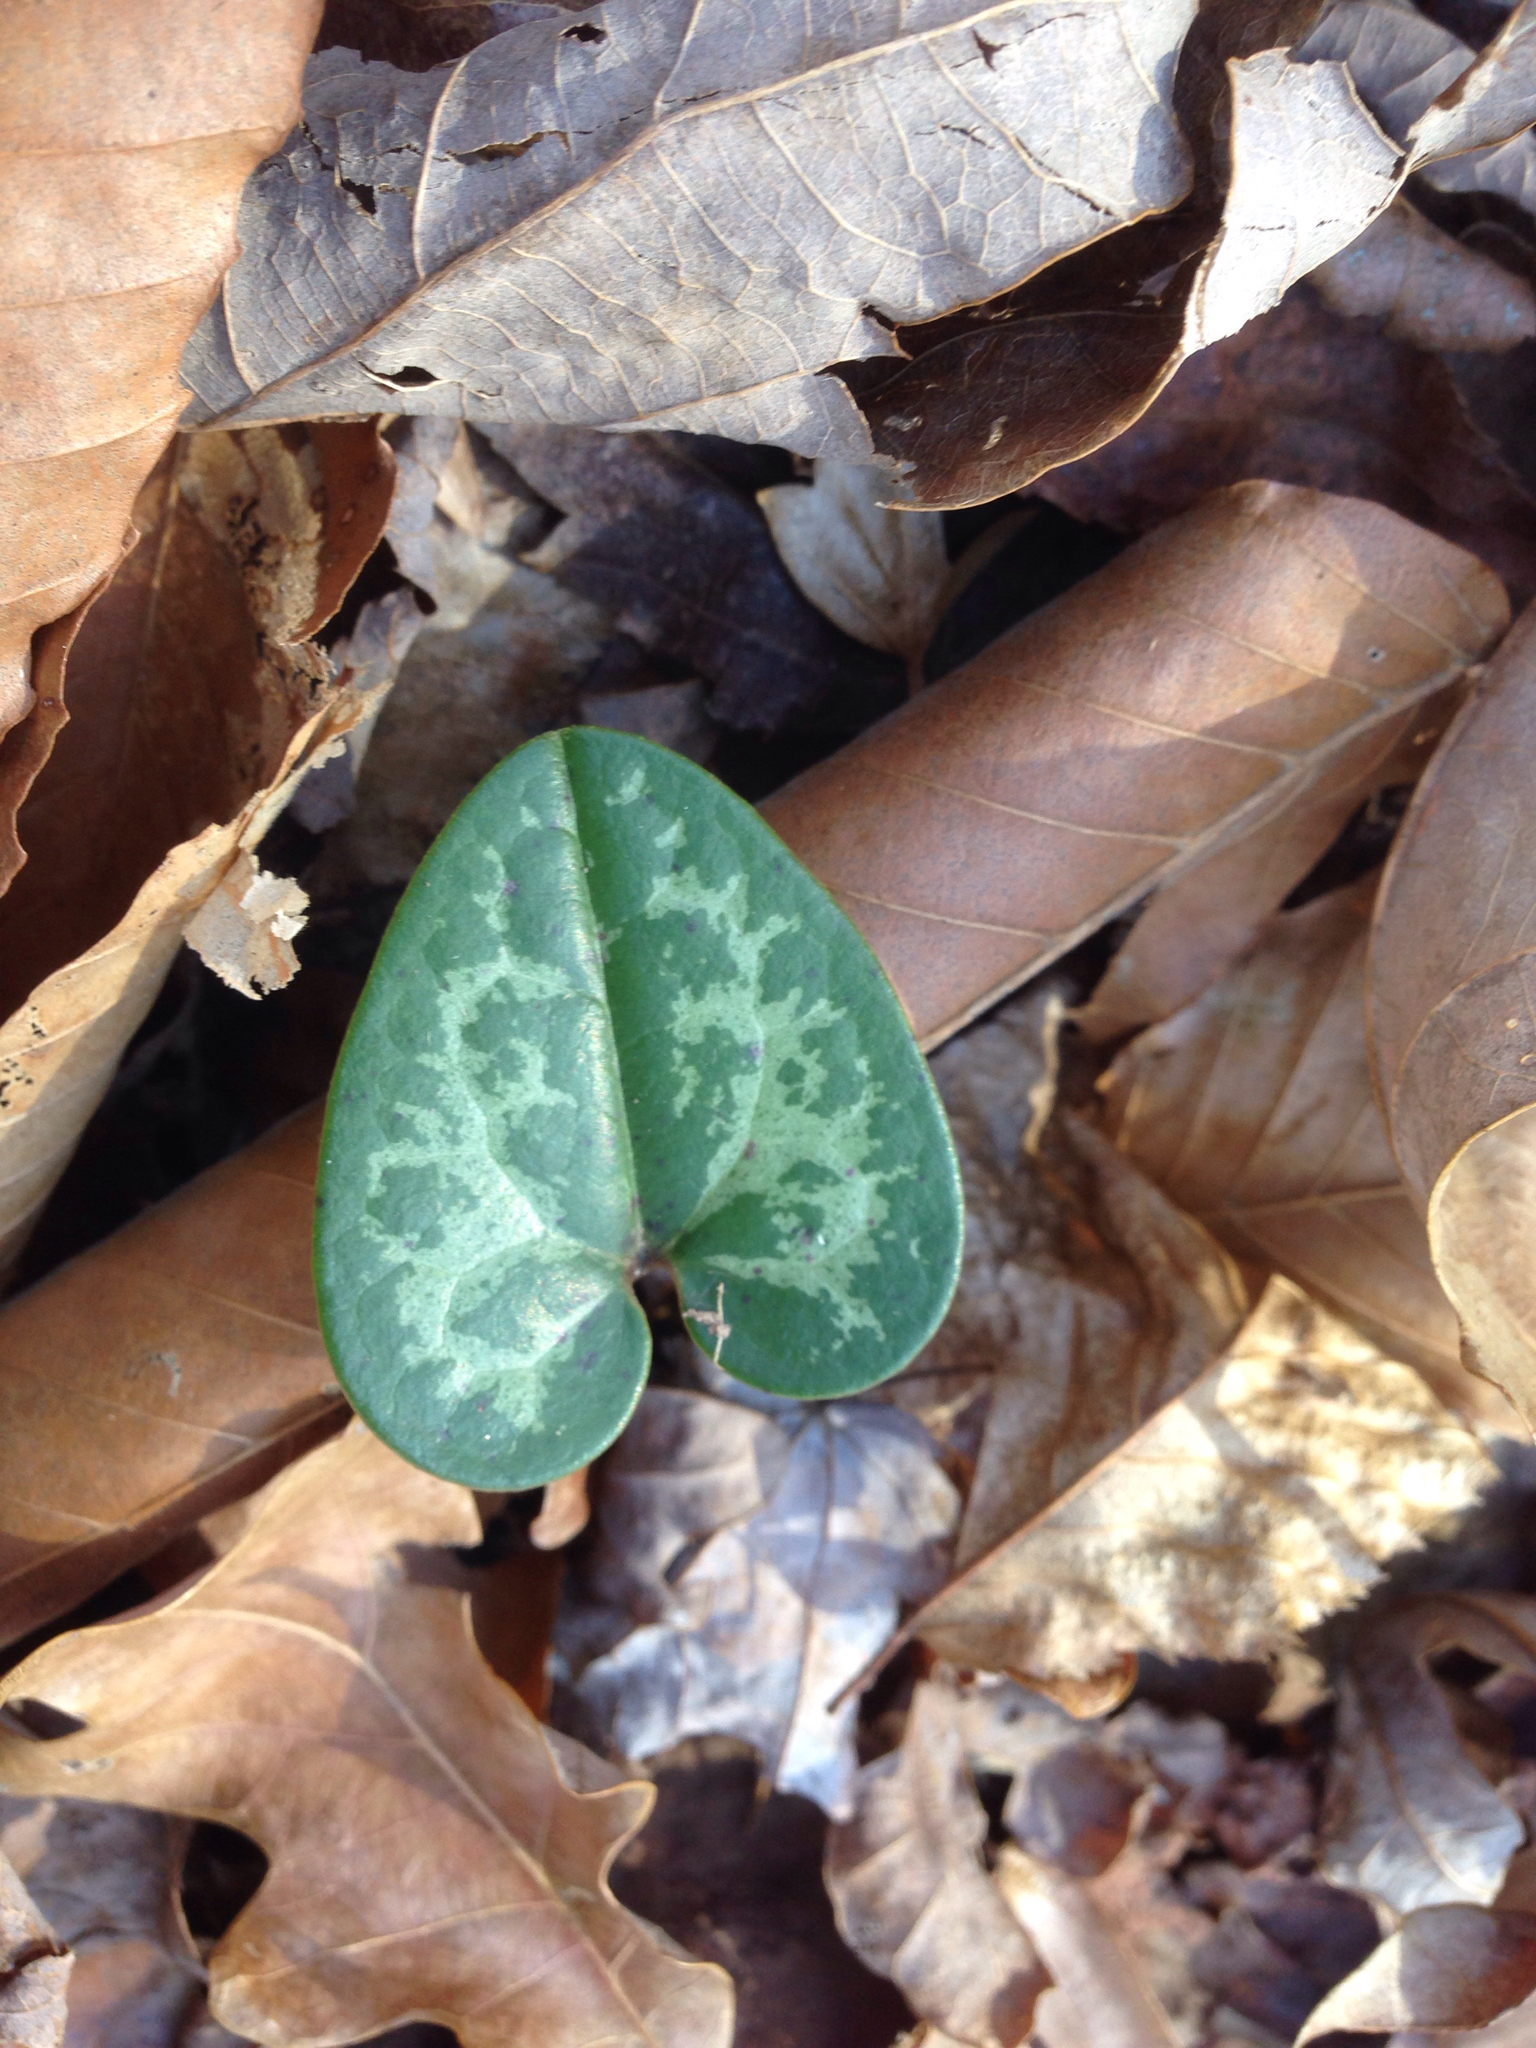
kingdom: Plantae
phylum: Tracheophyta
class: Magnoliopsida
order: Piperales
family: Aristolochiaceae
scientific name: Aristolochiaceae
